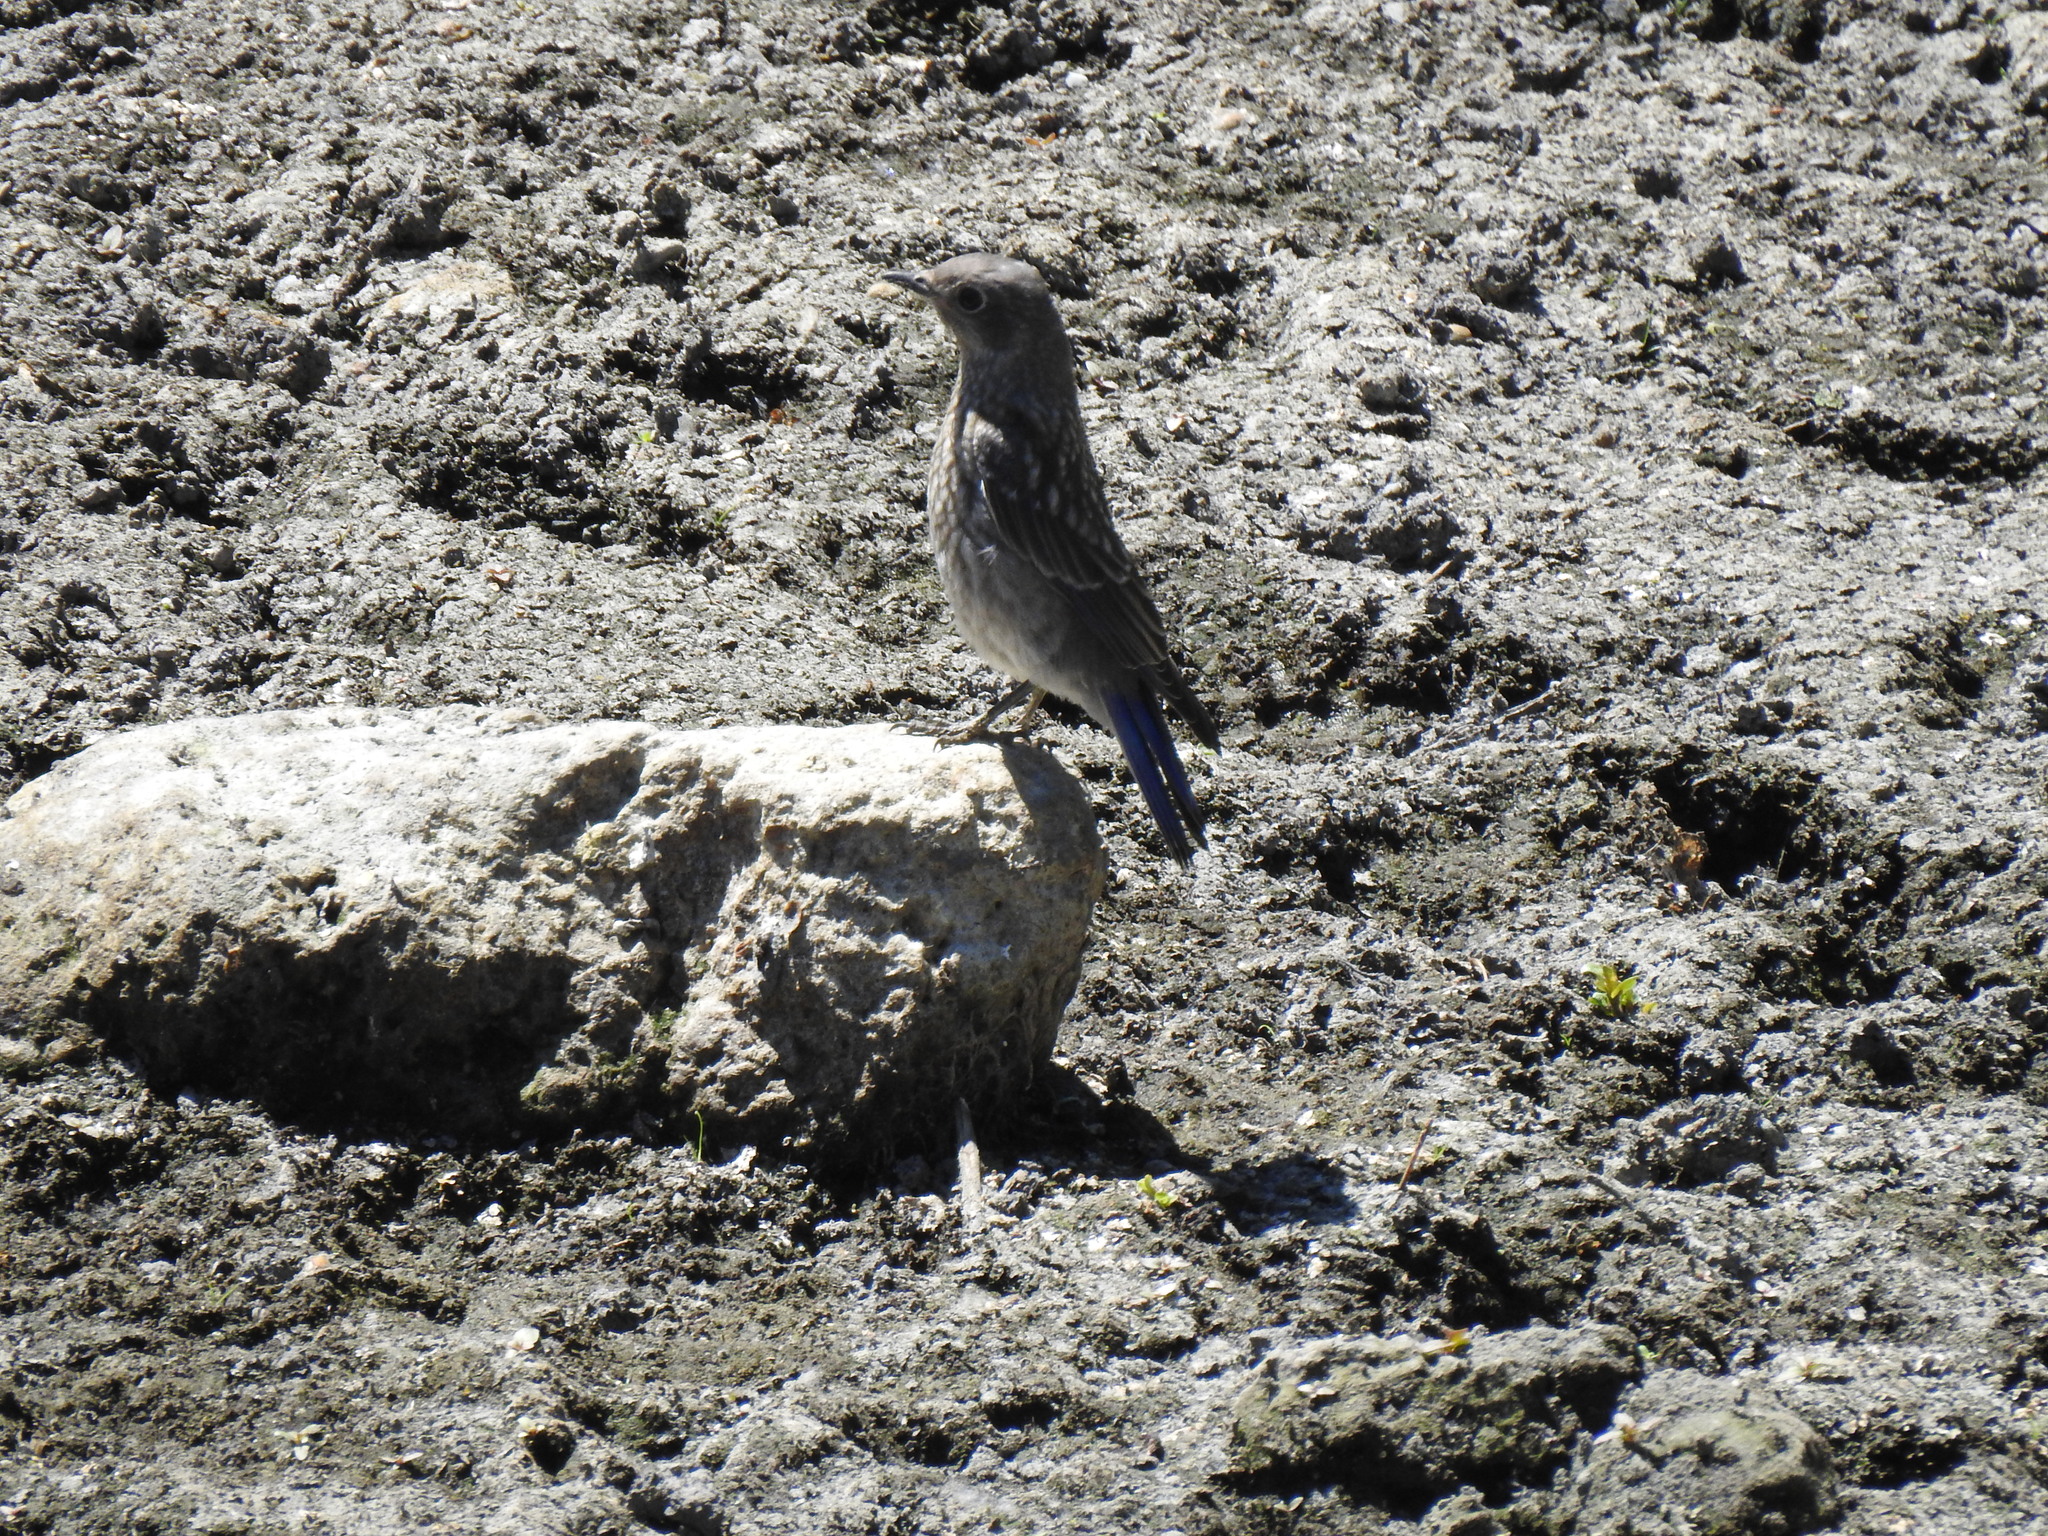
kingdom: Animalia
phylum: Chordata
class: Aves
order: Passeriformes
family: Turdidae
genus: Sialia
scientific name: Sialia mexicana
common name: Western bluebird
